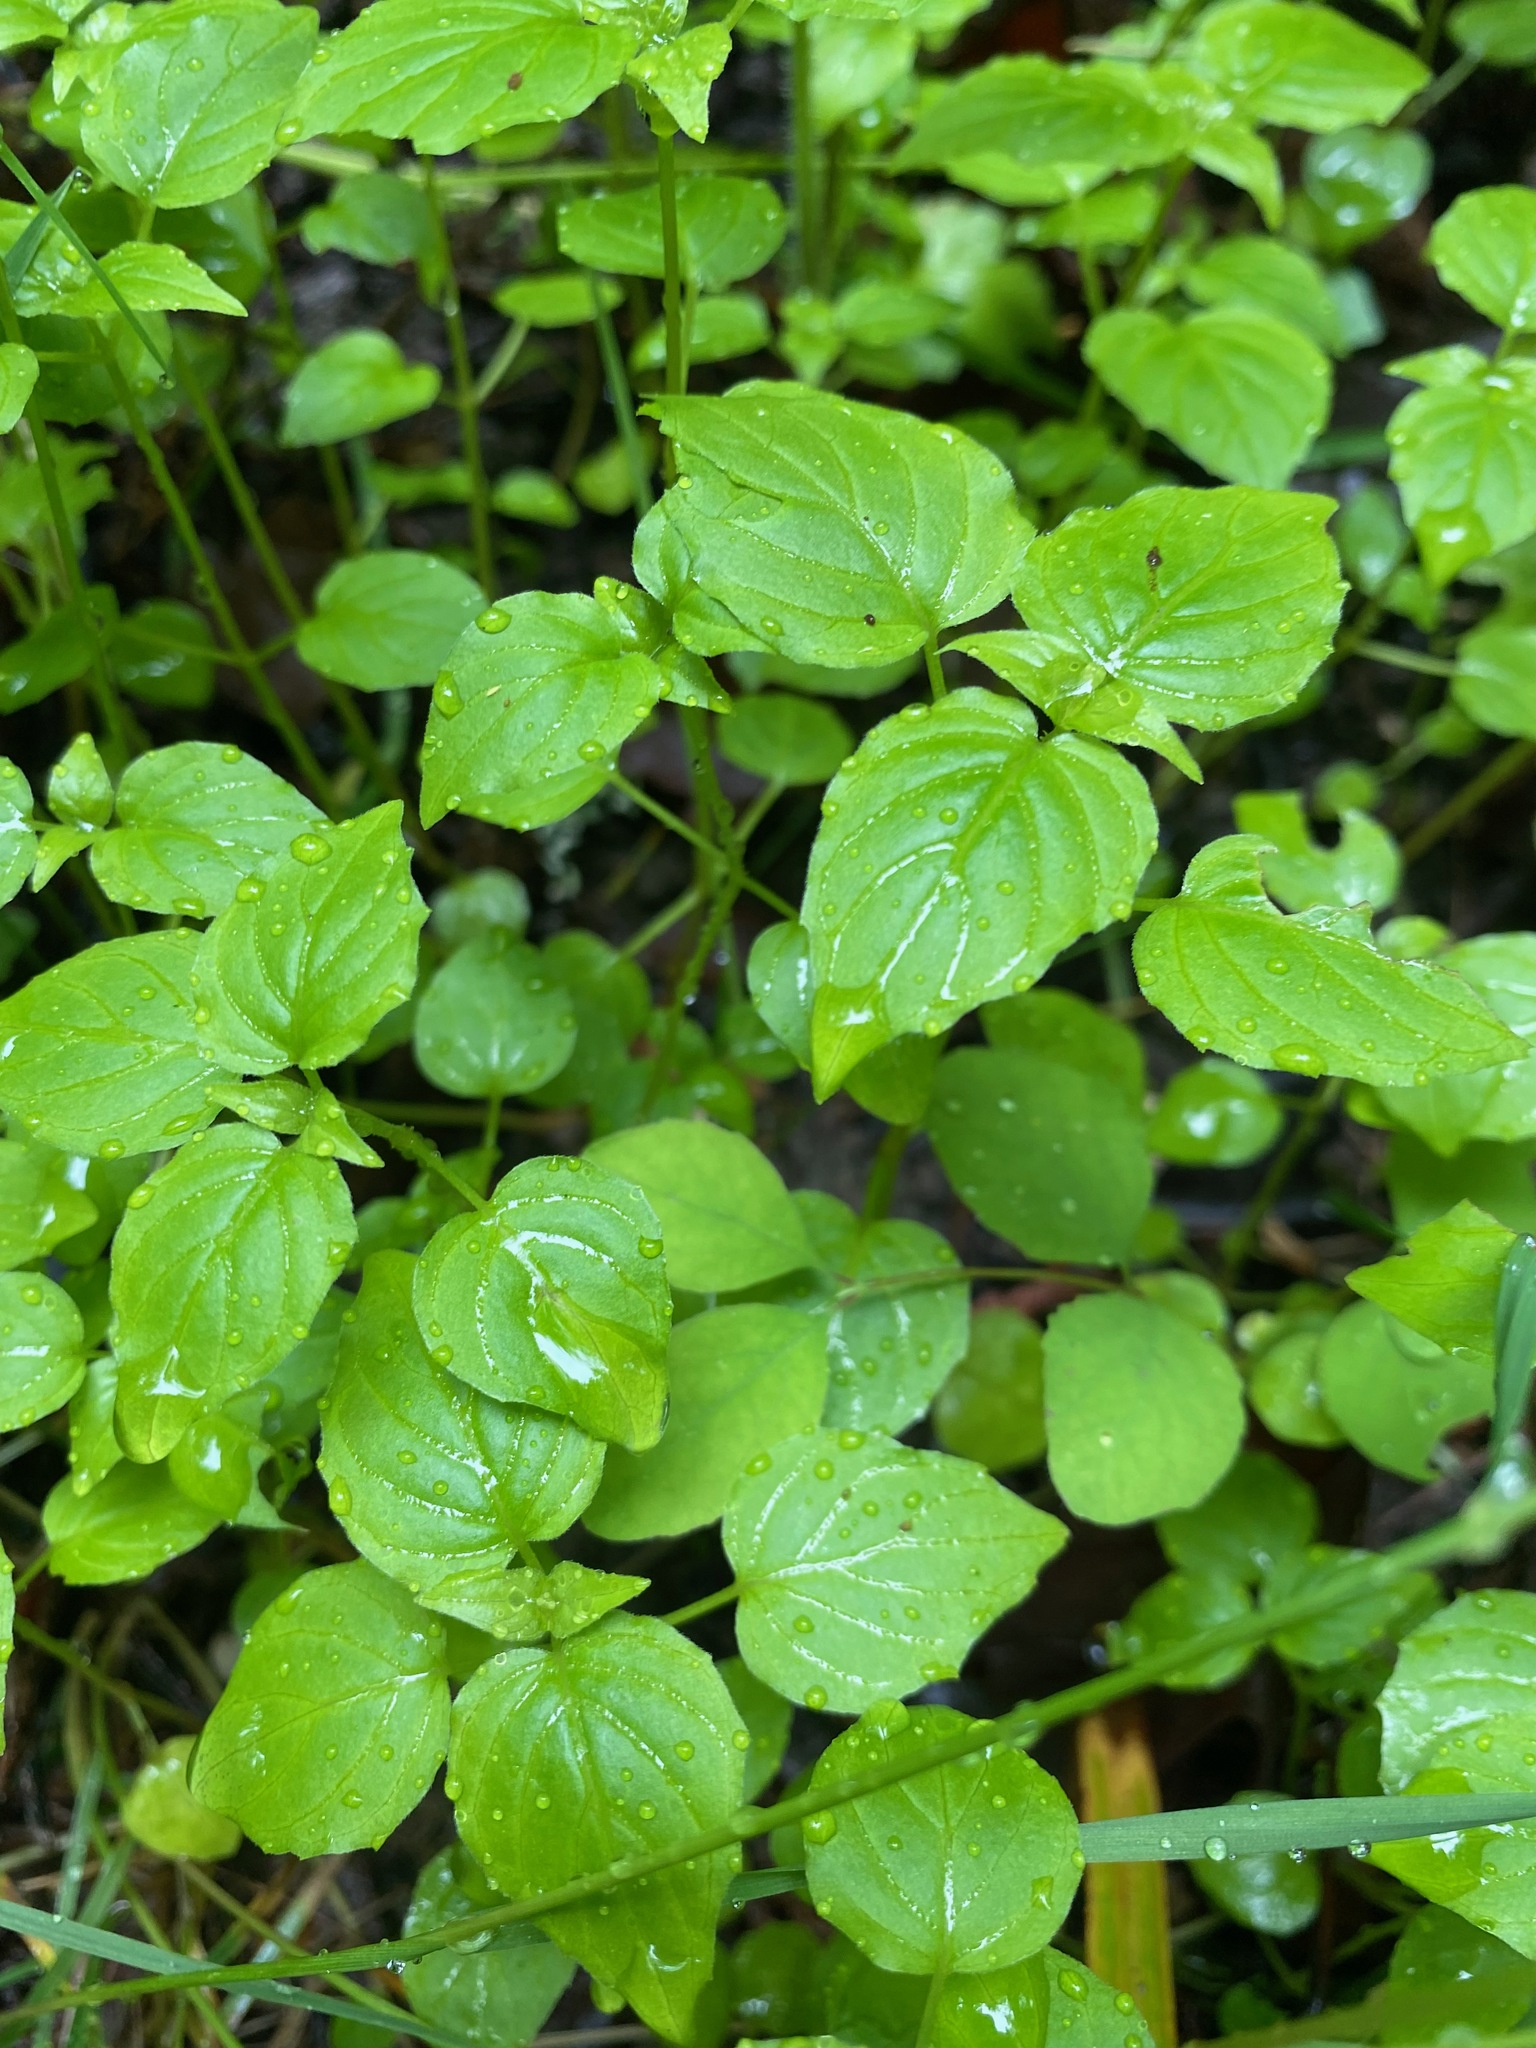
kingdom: Plantae
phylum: Tracheophyta
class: Magnoliopsida
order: Myrtales
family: Onagraceae
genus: Circaea
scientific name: Circaea alpina
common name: Alpine enchanter's-nightshade
